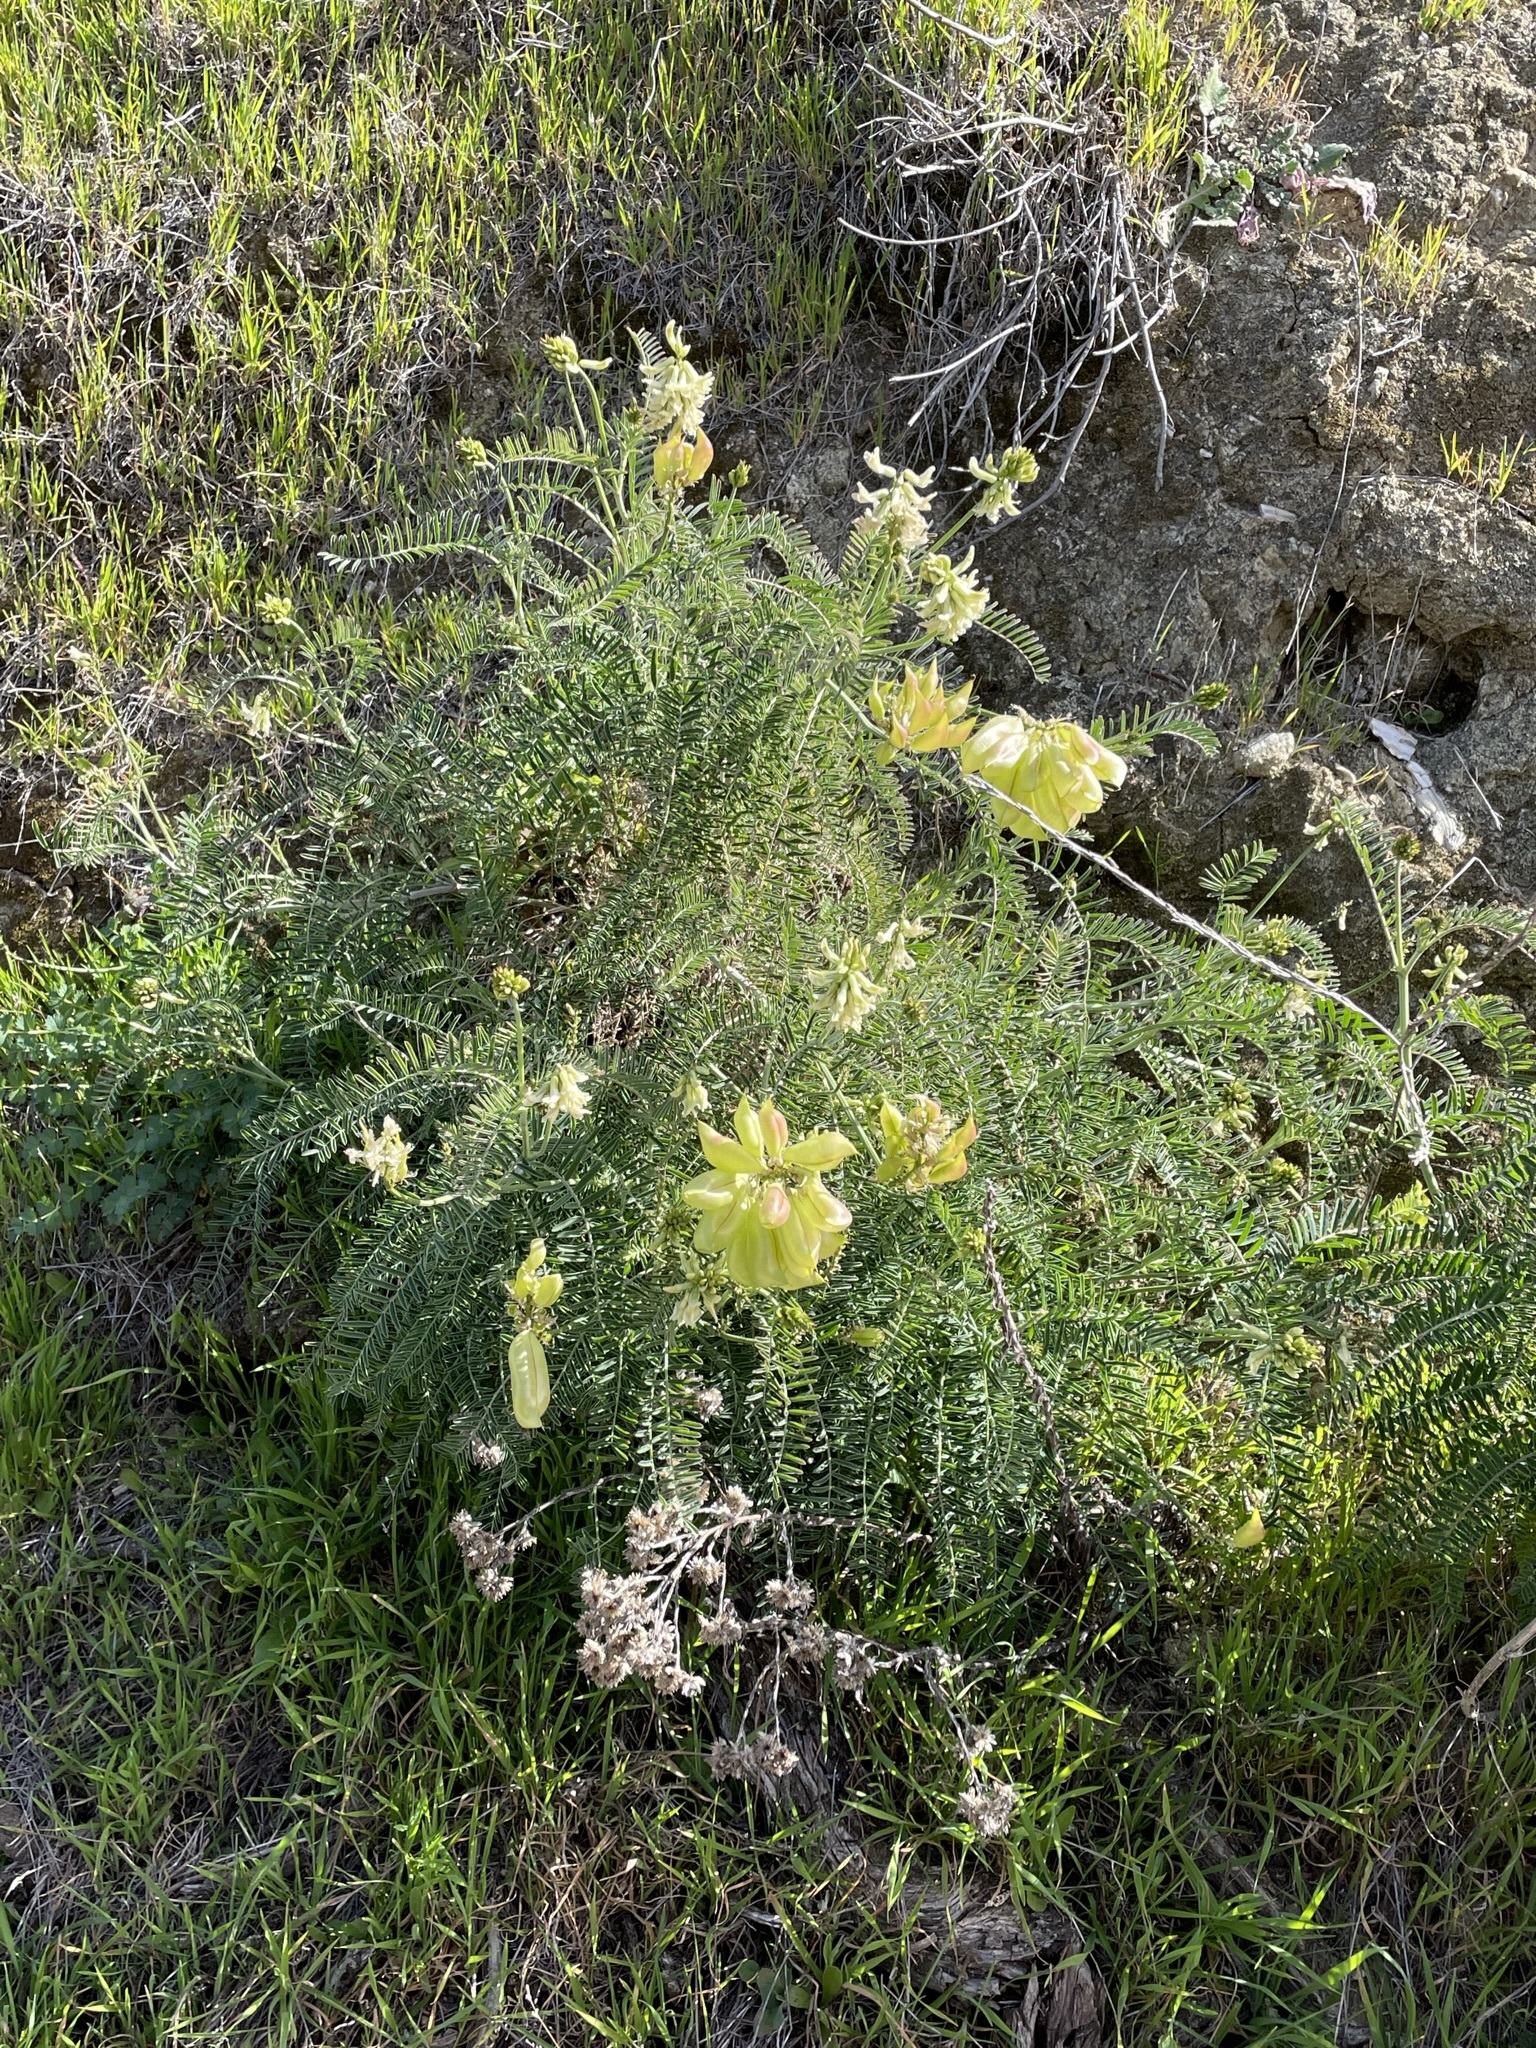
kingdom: Plantae
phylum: Tracheophyta
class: Magnoliopsida
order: Fabales
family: Fabaceae
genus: Astragalus
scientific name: Astragalus curtipes
